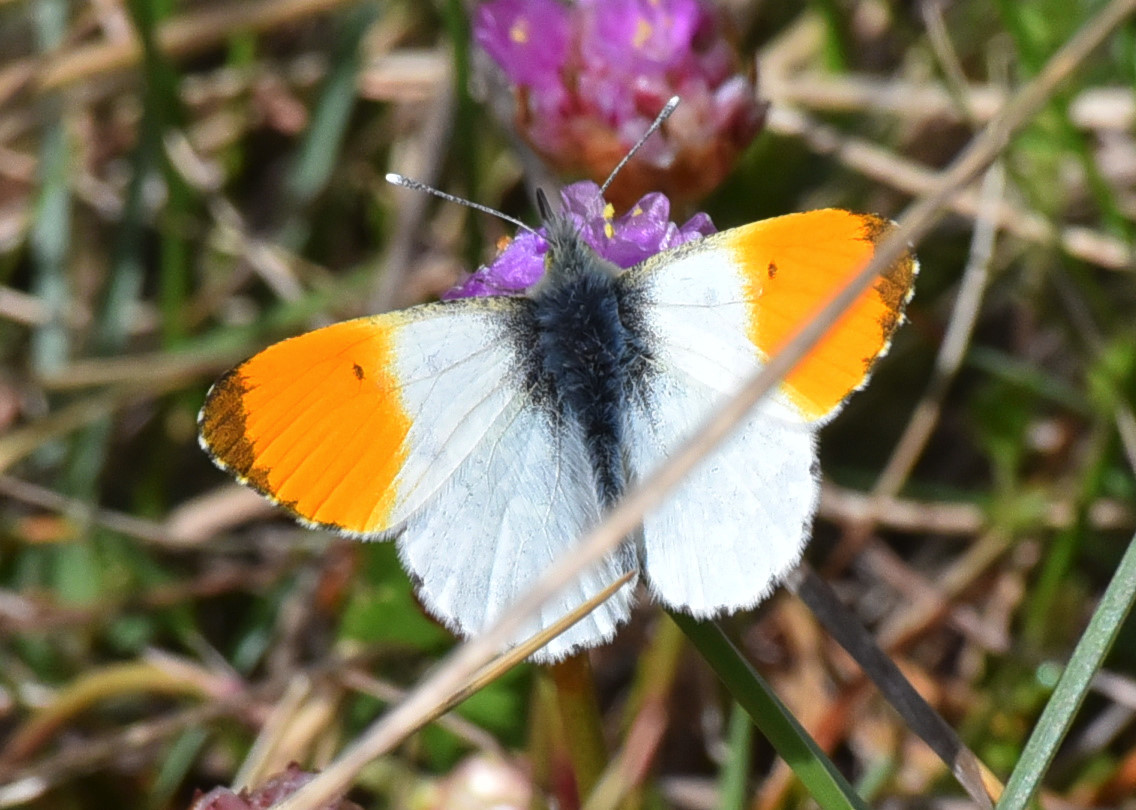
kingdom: Animalia
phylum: Arthropoda
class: Insecta
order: Lepidoptera
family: Pieridae
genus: Anthocharis
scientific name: Anthocharis cardamines
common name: Orange-tip
